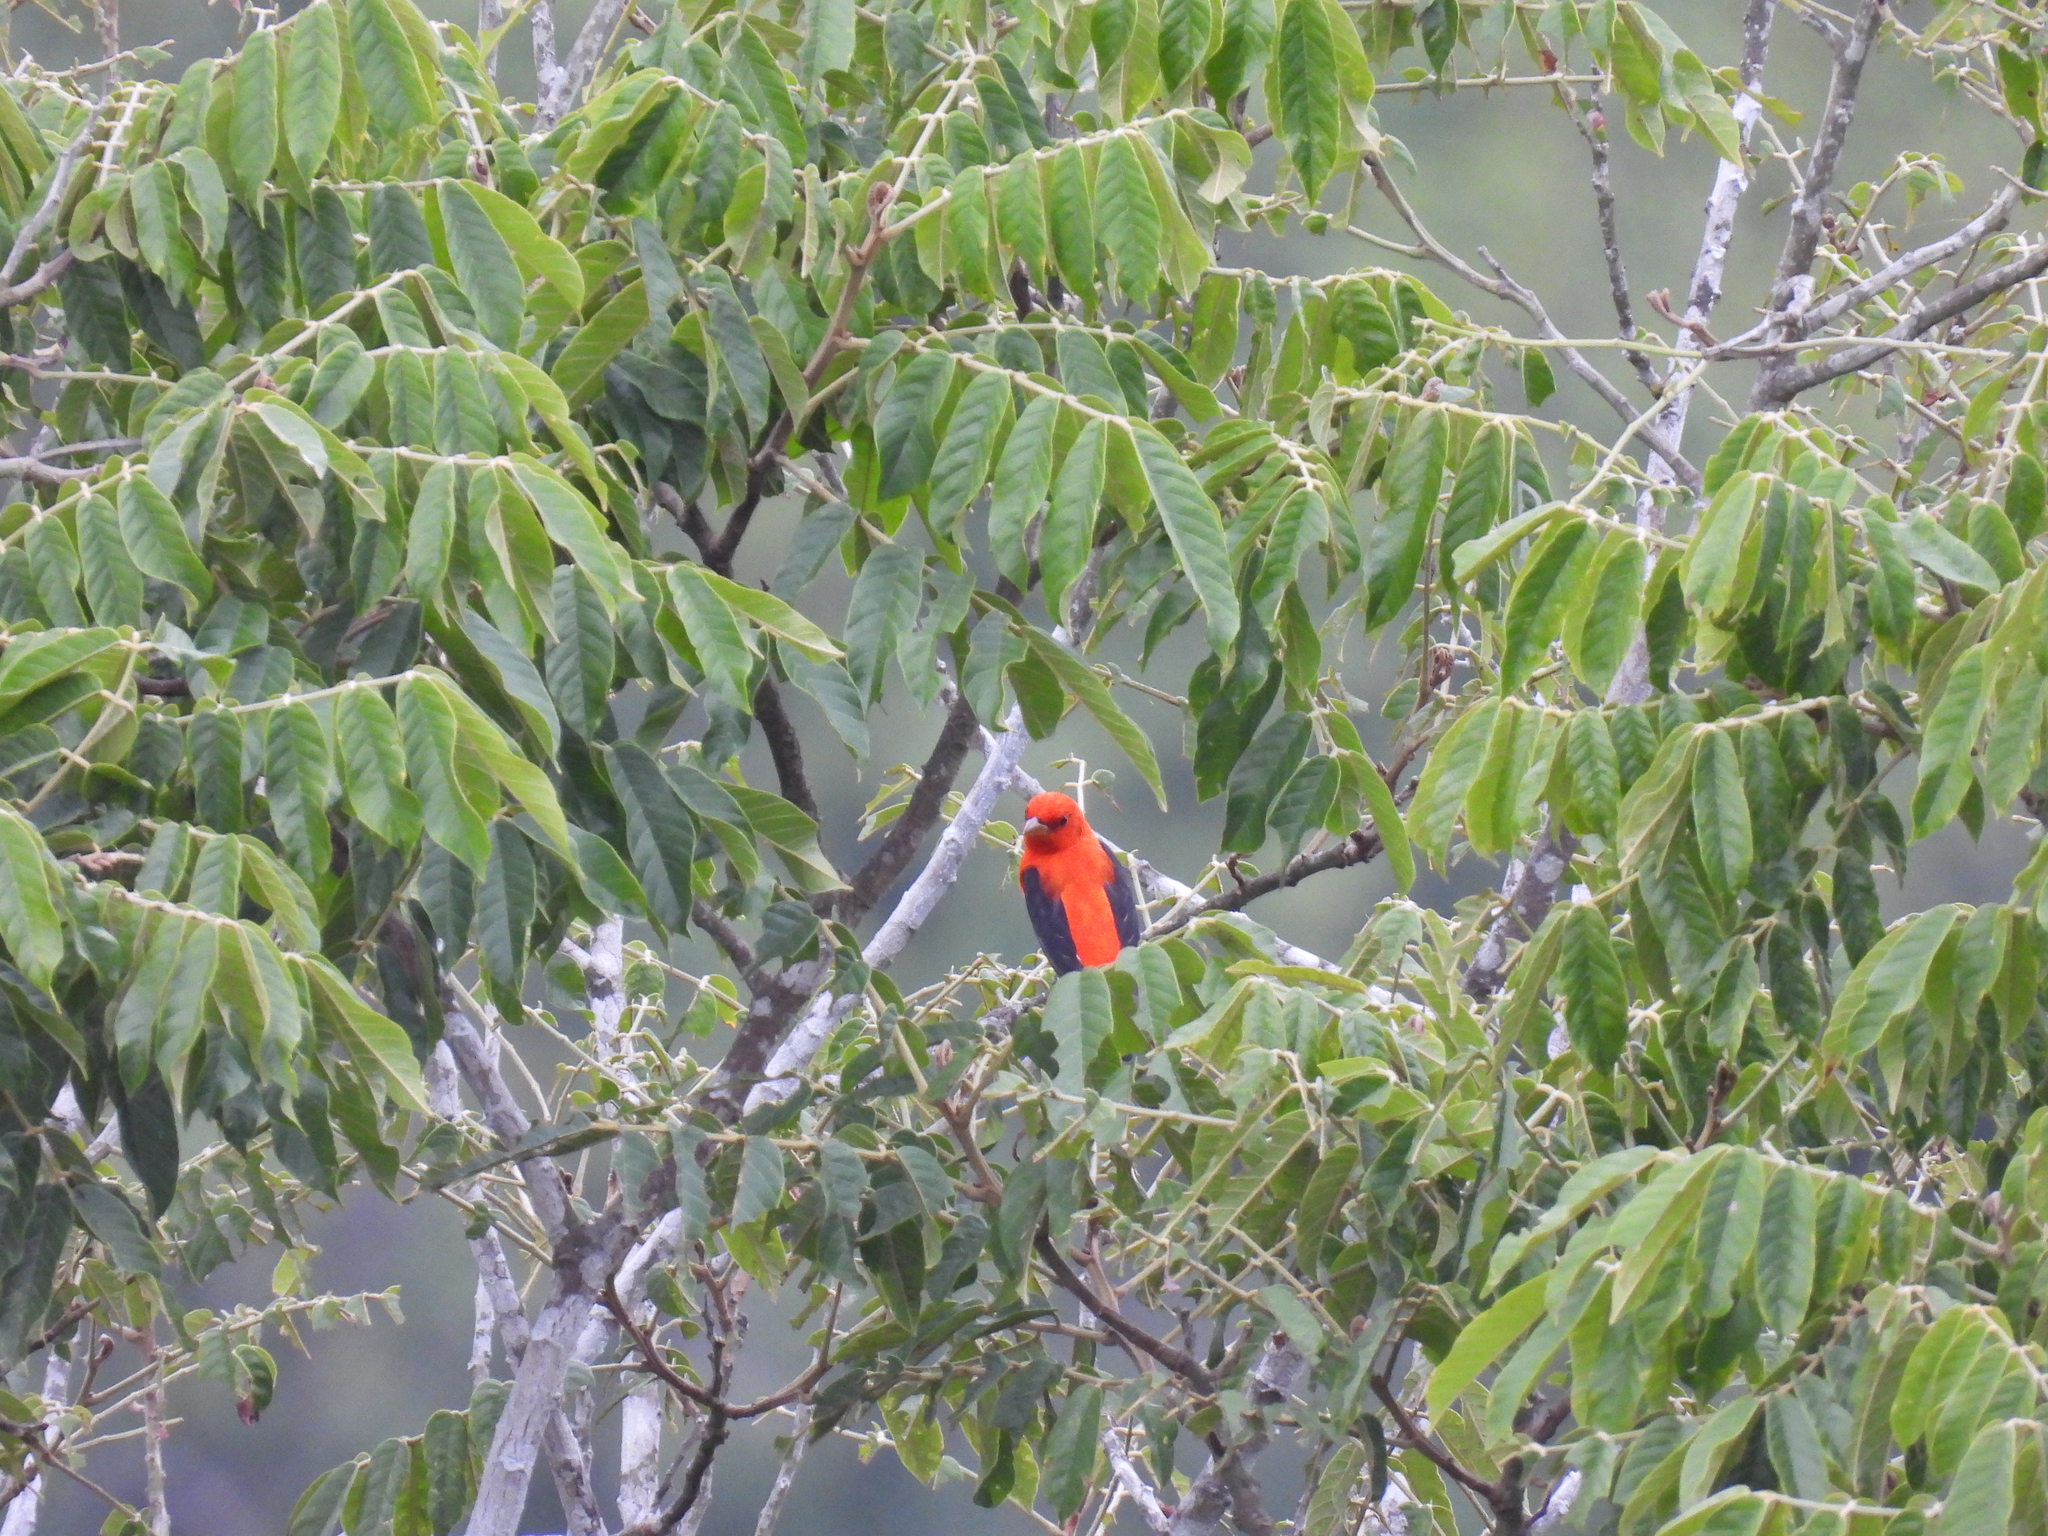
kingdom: Animalia
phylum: Chordata
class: Aves
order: Passeriformes
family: Cardinalidae
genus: Piranga
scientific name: Piranga olivacea
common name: Scarlet tanager
